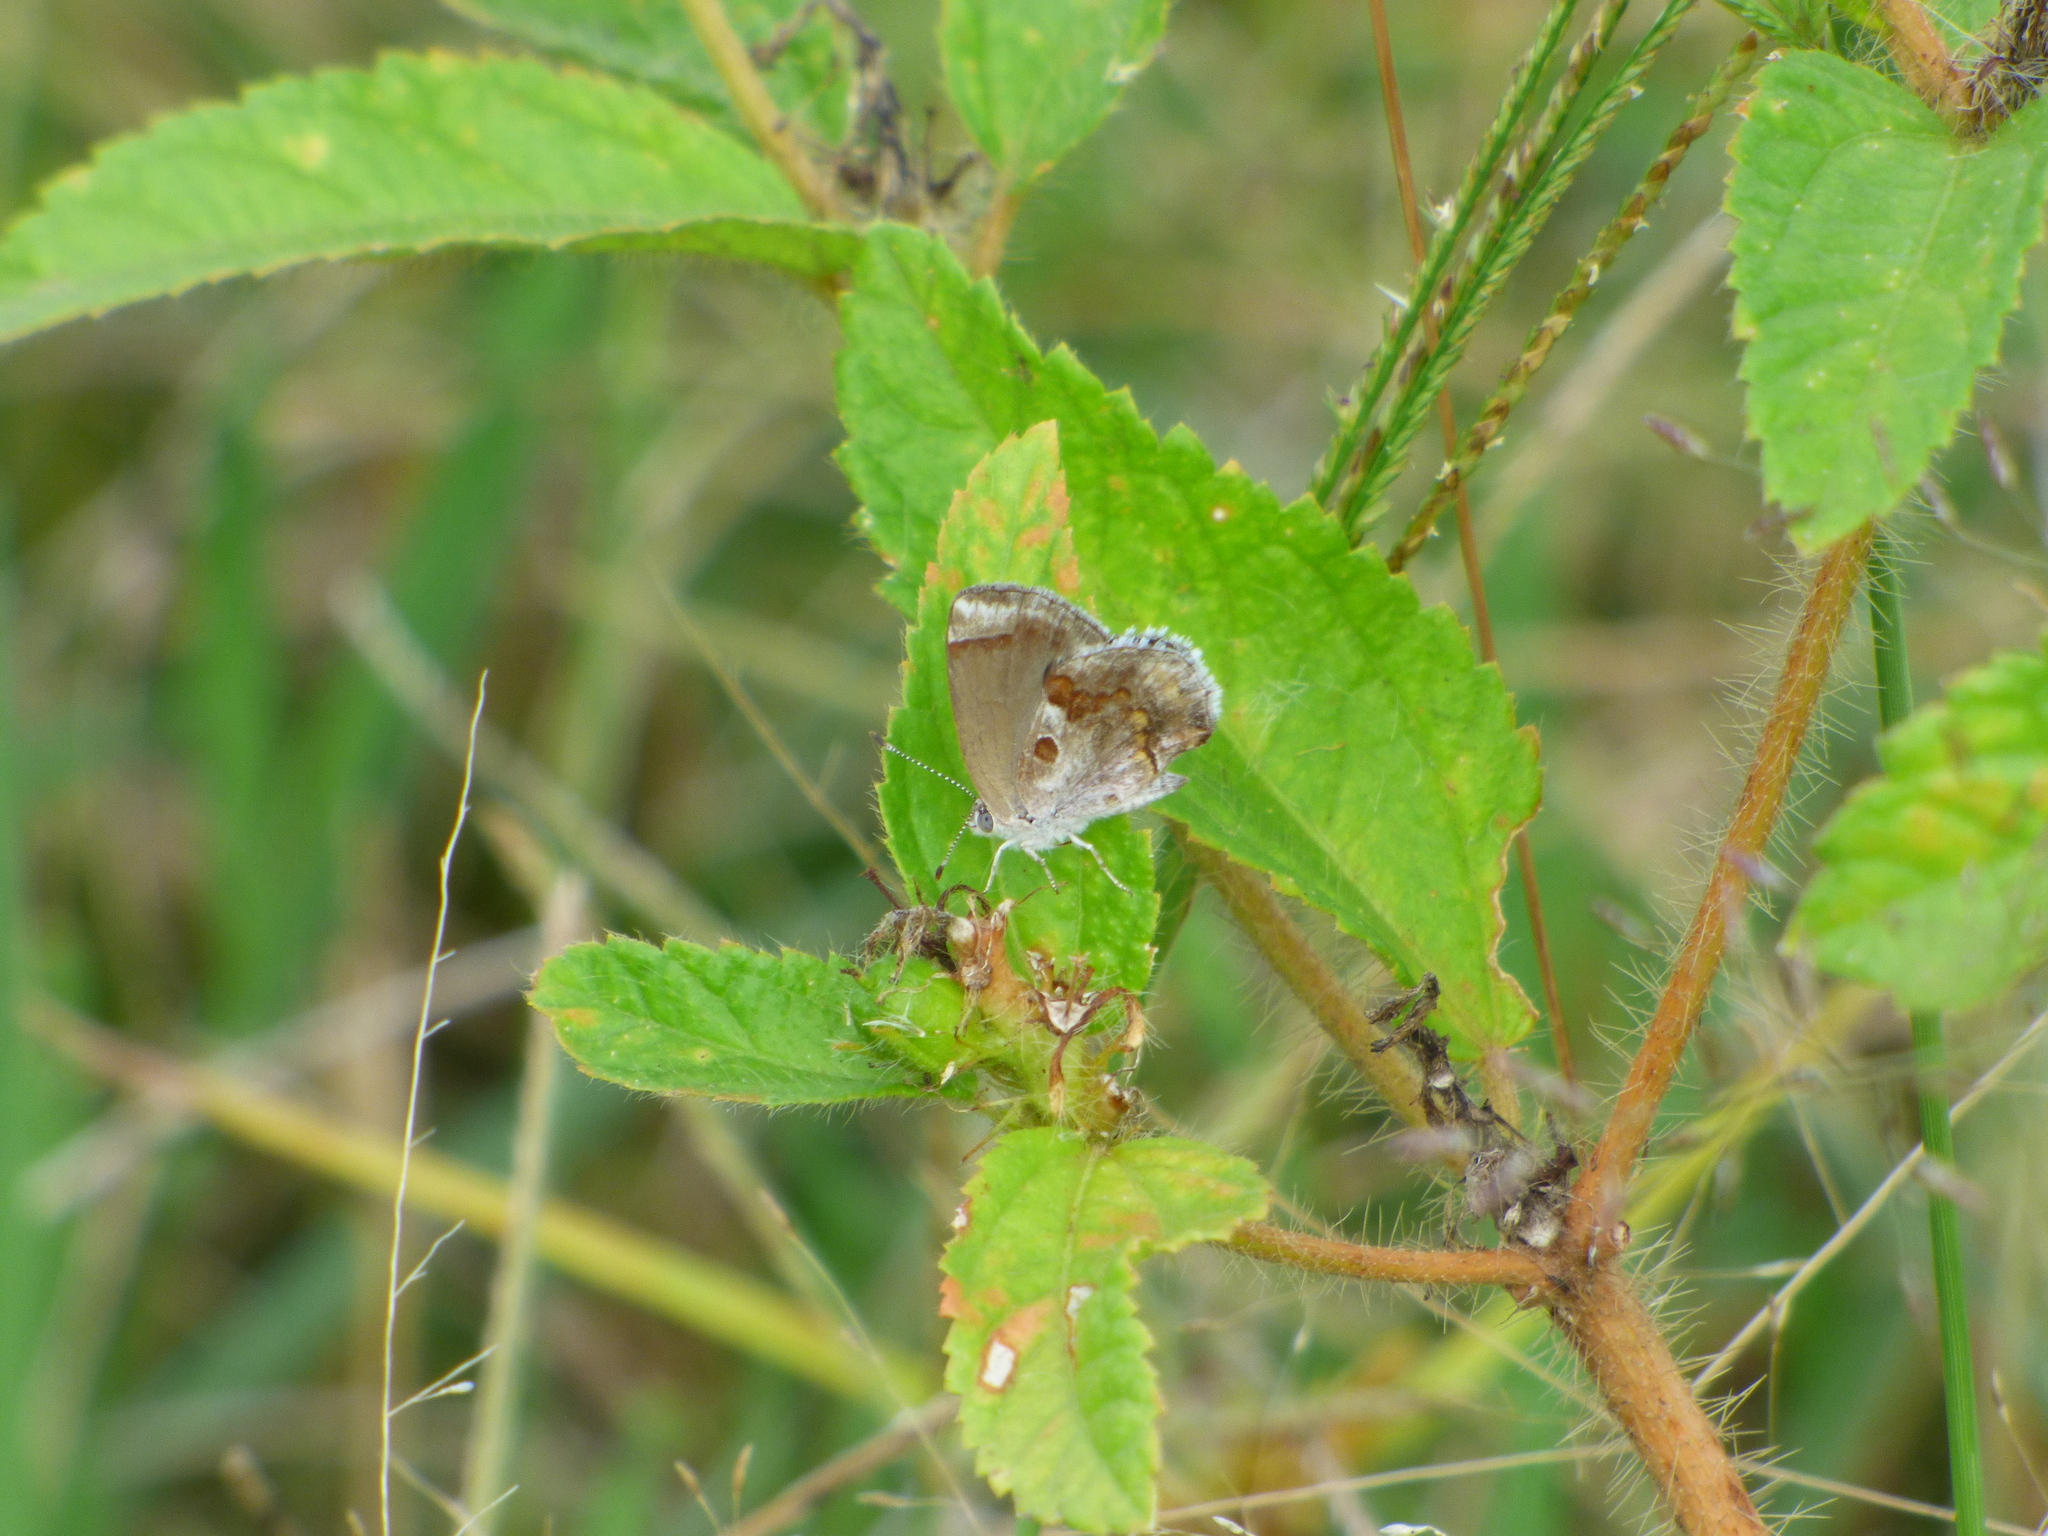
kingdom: Animalia
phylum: Arthropoda
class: Insecta
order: Lepidoptera
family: Lycaenidae
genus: Strymon
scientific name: Strymon bazochii
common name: Lantana scrub-hairstreak
